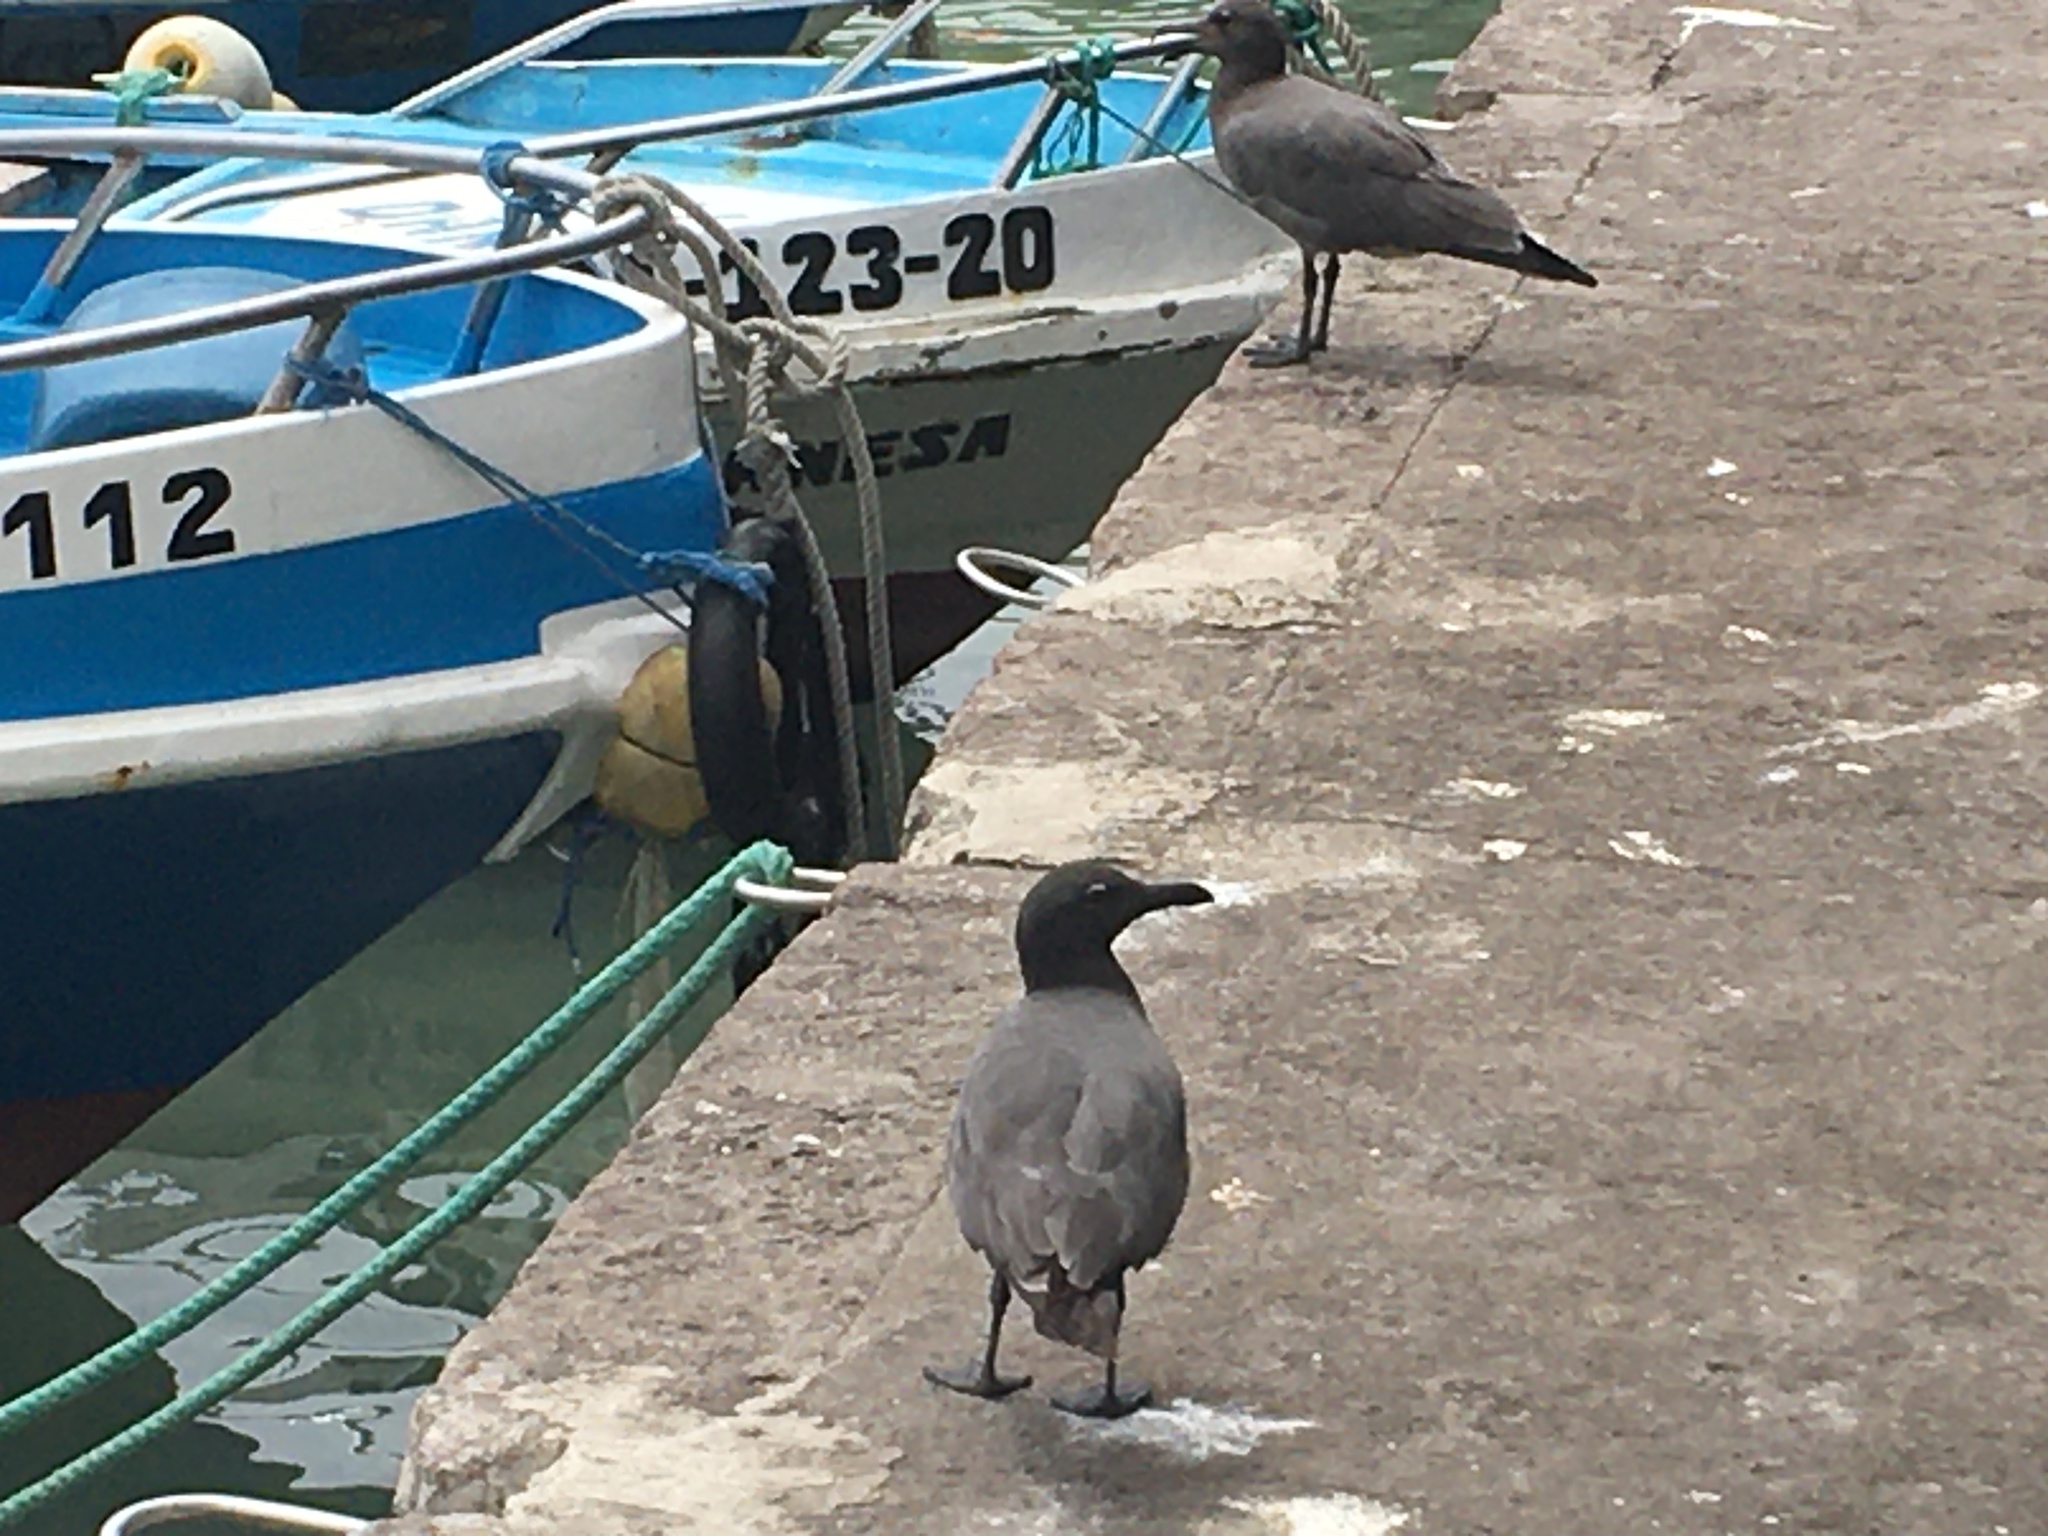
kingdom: Animalia
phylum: Chordata
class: Aves
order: Charadriiformes
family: Laridae
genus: Leucophaeus
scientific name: Leucophaeus fuliginosus
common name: Lava gull
